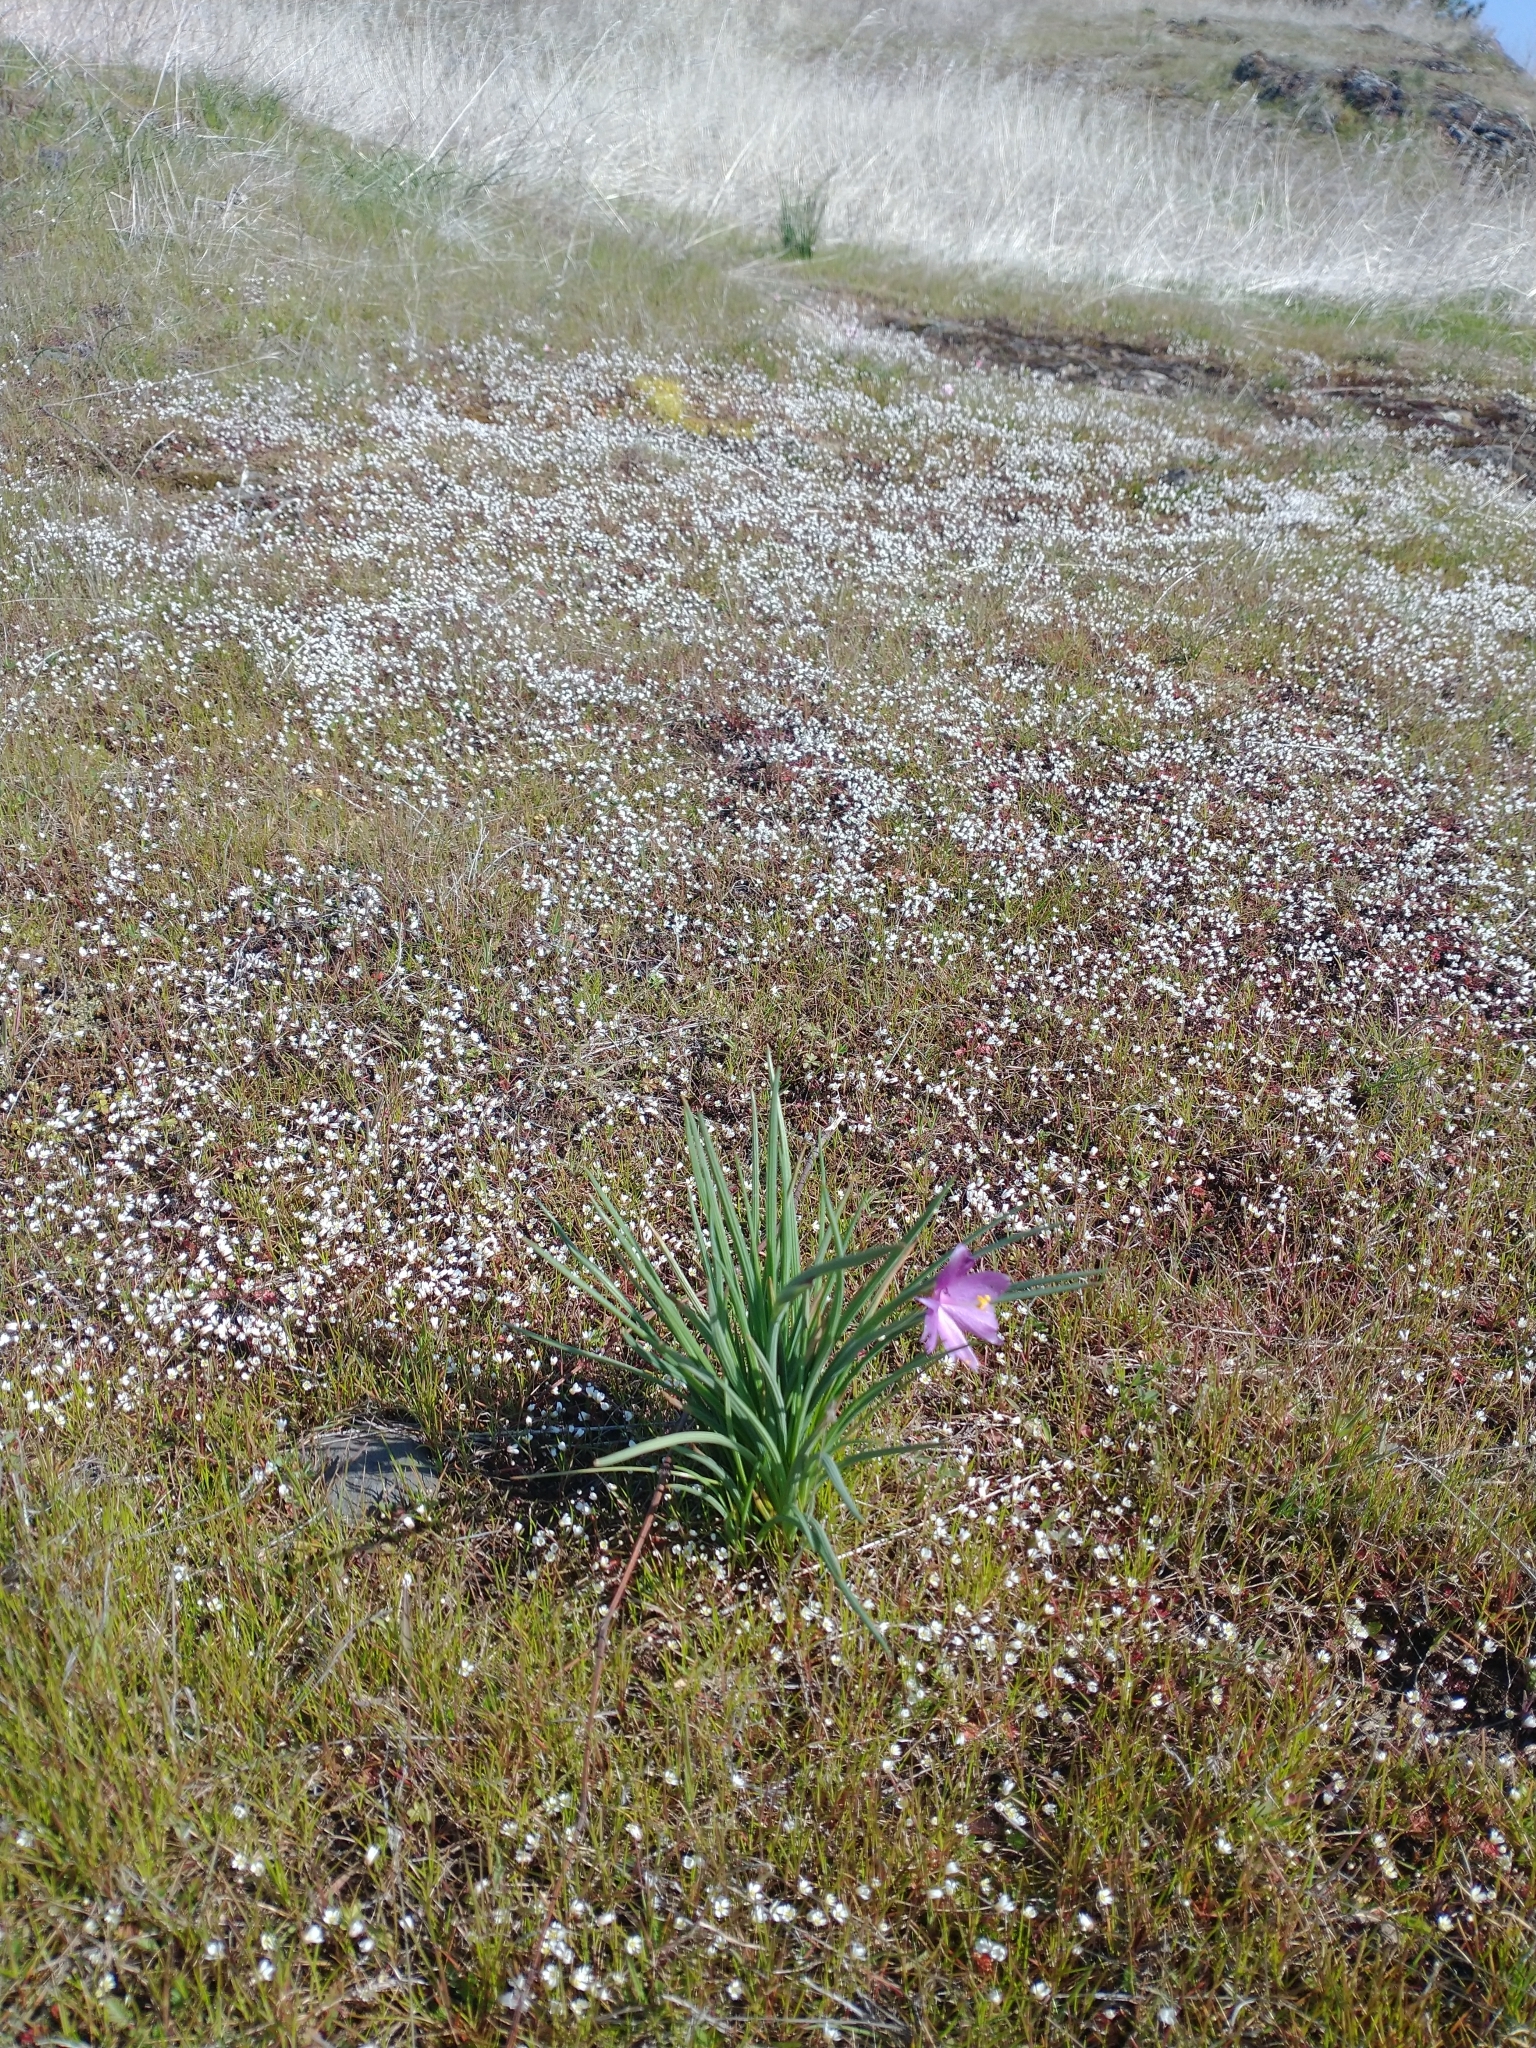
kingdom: Plantae
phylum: Tracheophyta
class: Liliopsida
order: Asparagales
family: Iridaceae
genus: Olsynium
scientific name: Olsynium douglasii
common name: Douglas' grasswidow
